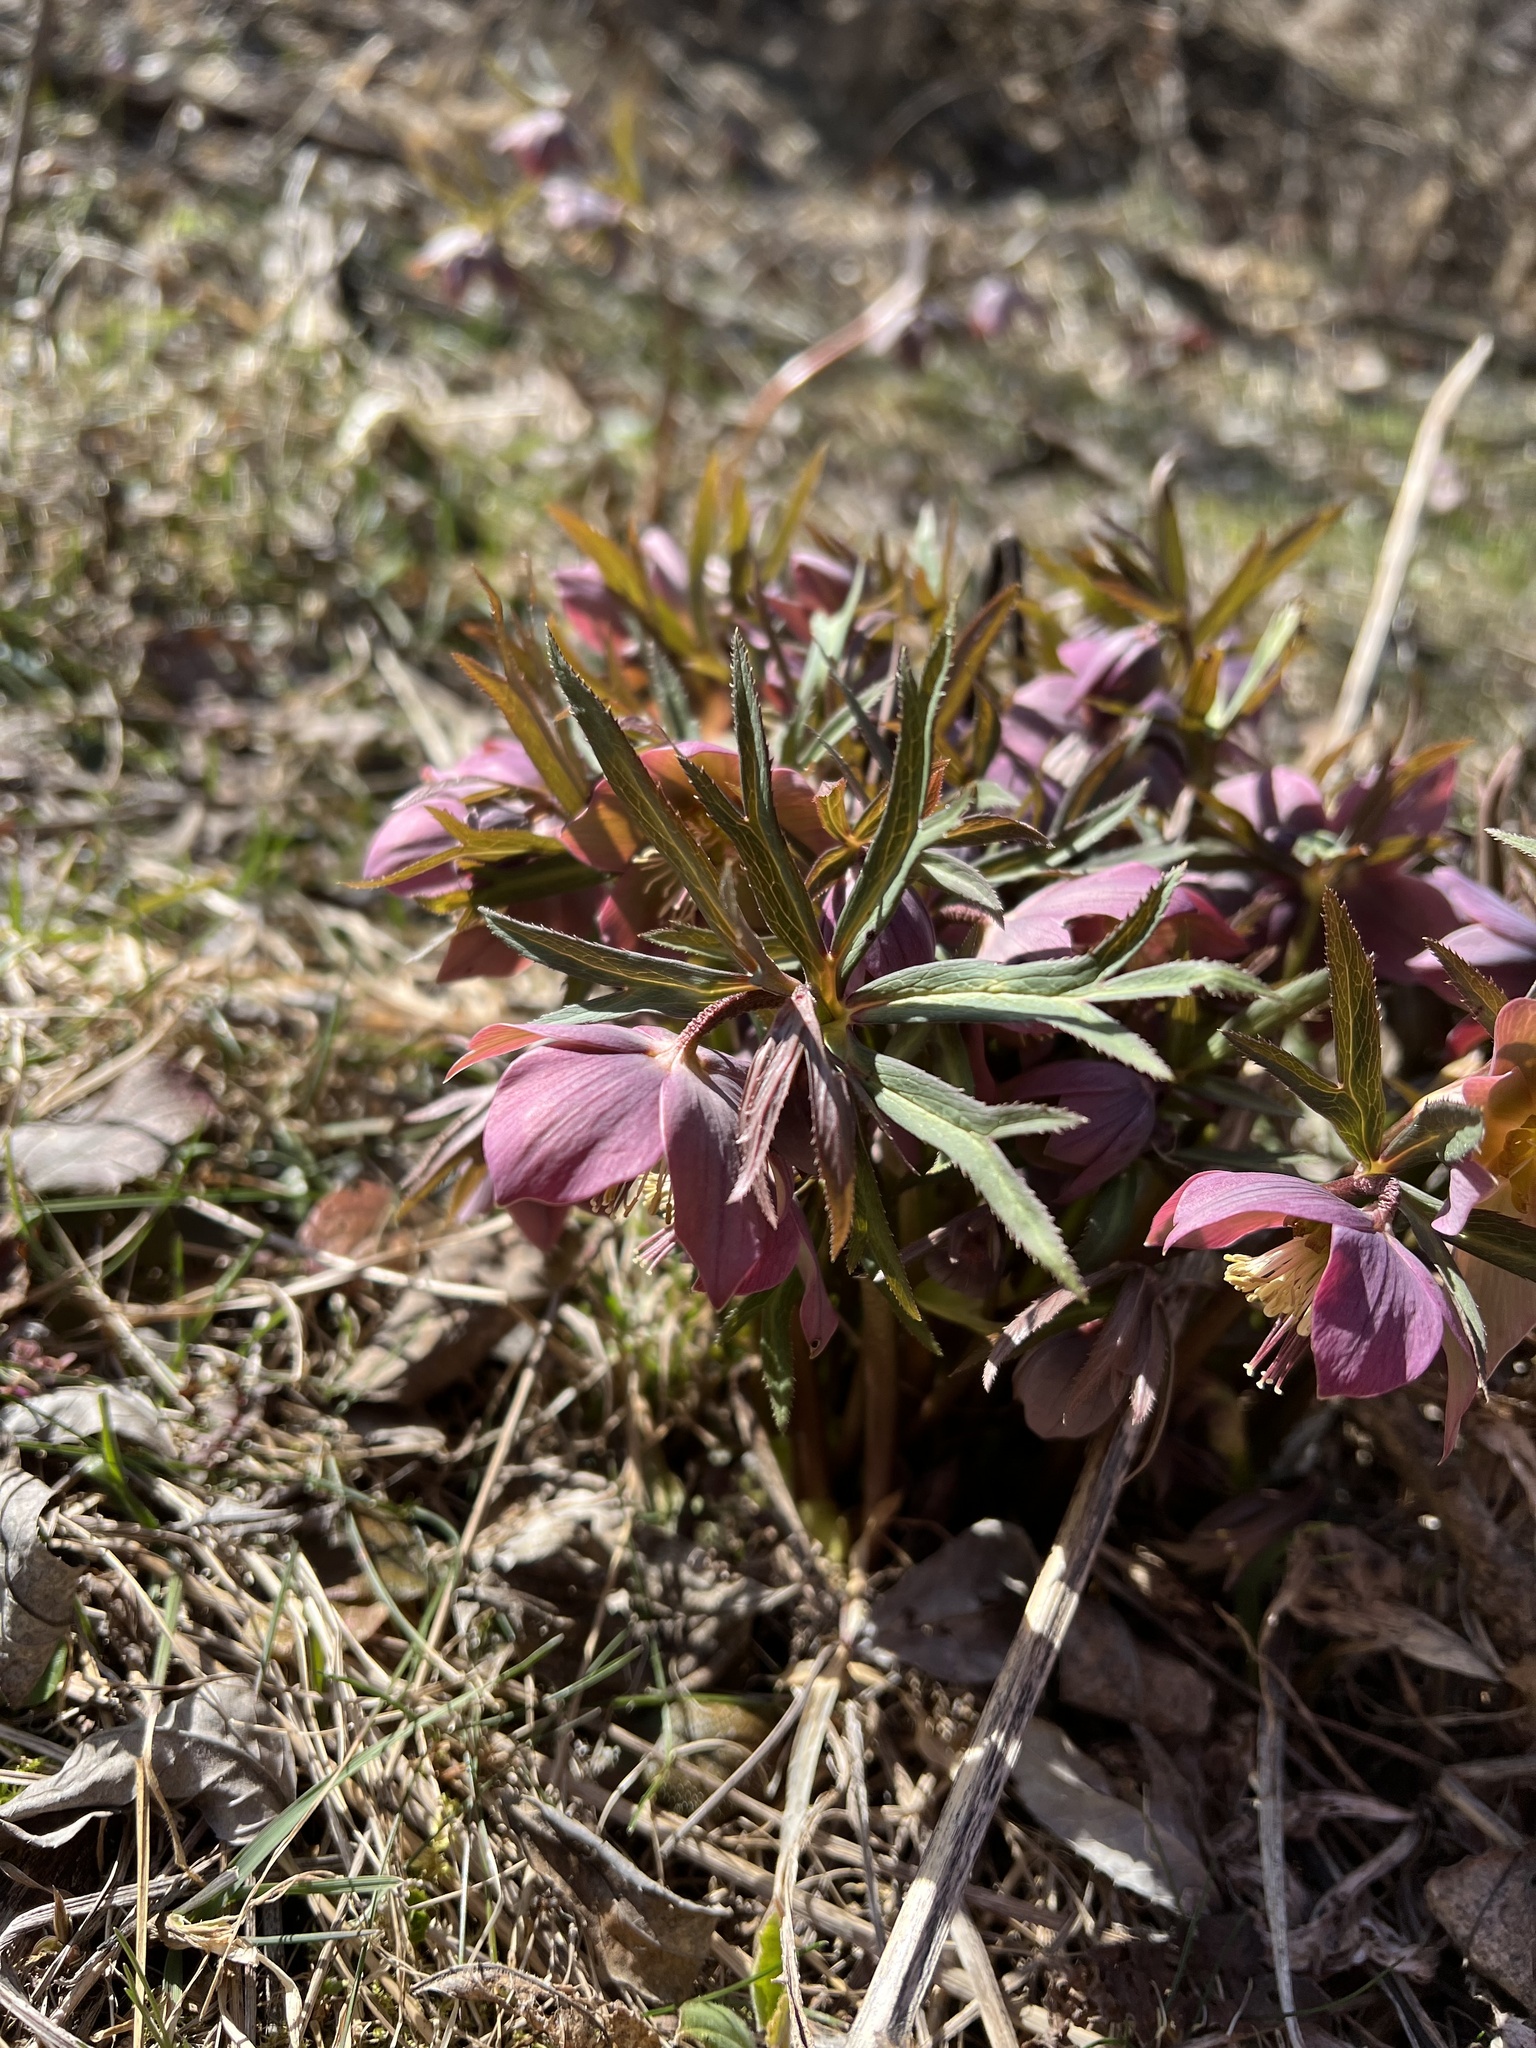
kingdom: Plantae
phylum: Tracheophyta
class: Magnoliopsida
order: Ranunculales
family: Ranunculaceae
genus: Helleborus
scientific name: Helleborus purpurascens
